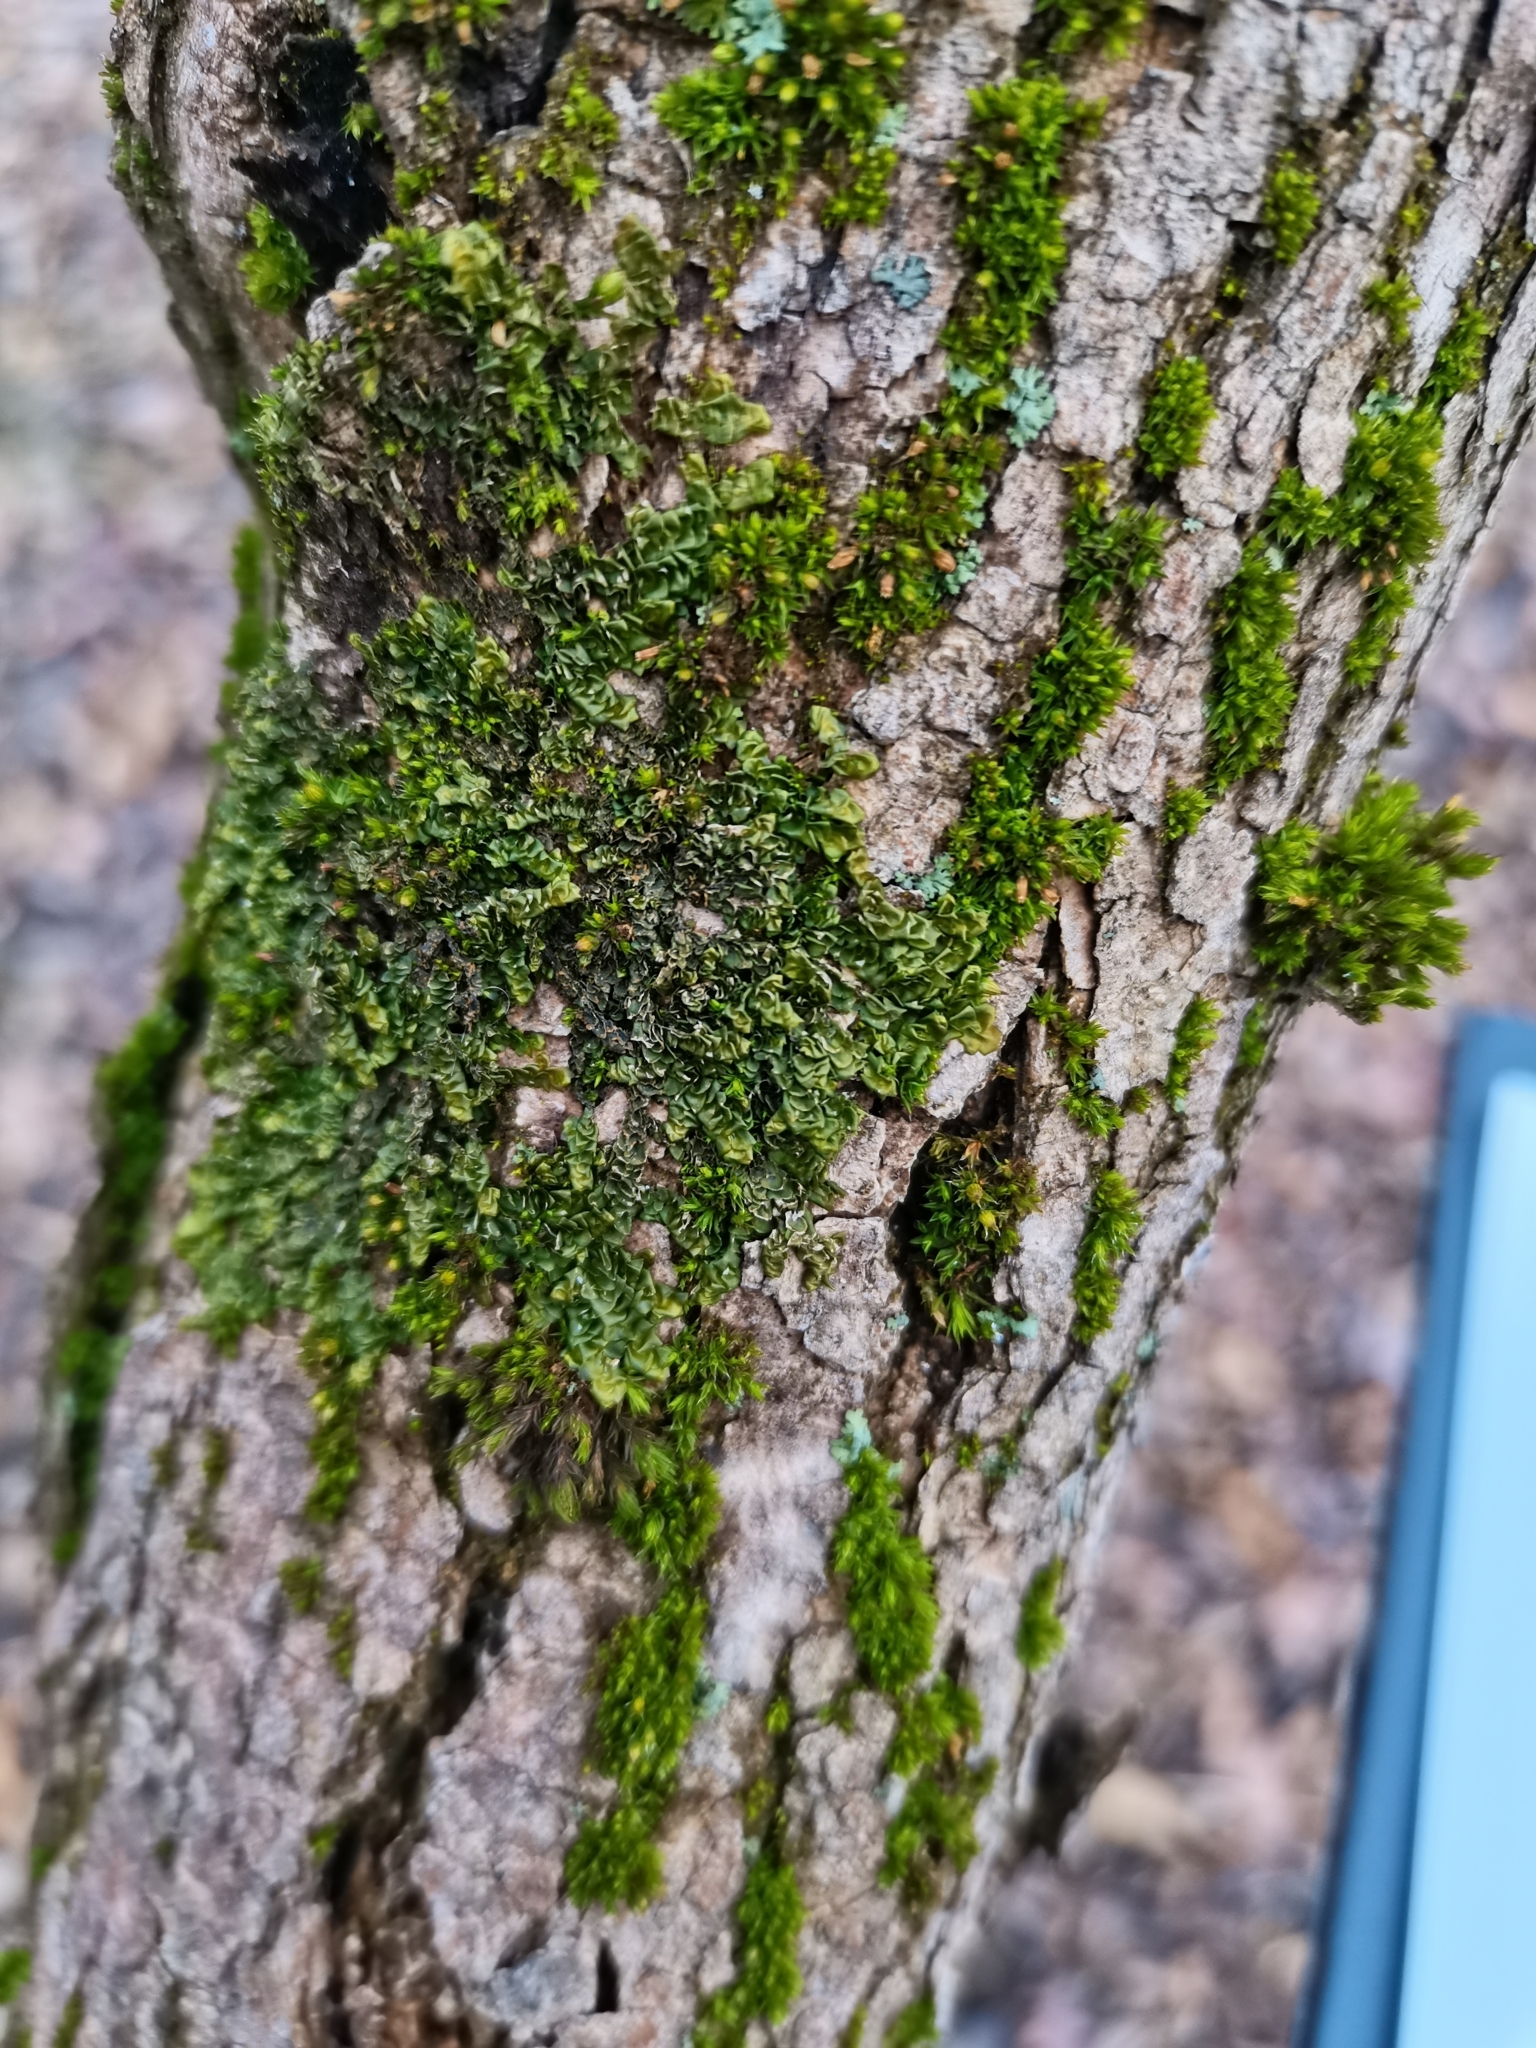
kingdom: Plantae
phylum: Marchantiophyta
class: Jungermanniopsida
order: Porellales
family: Porellaceae
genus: Porella
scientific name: Porella platyphylla
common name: Wall scalewort
